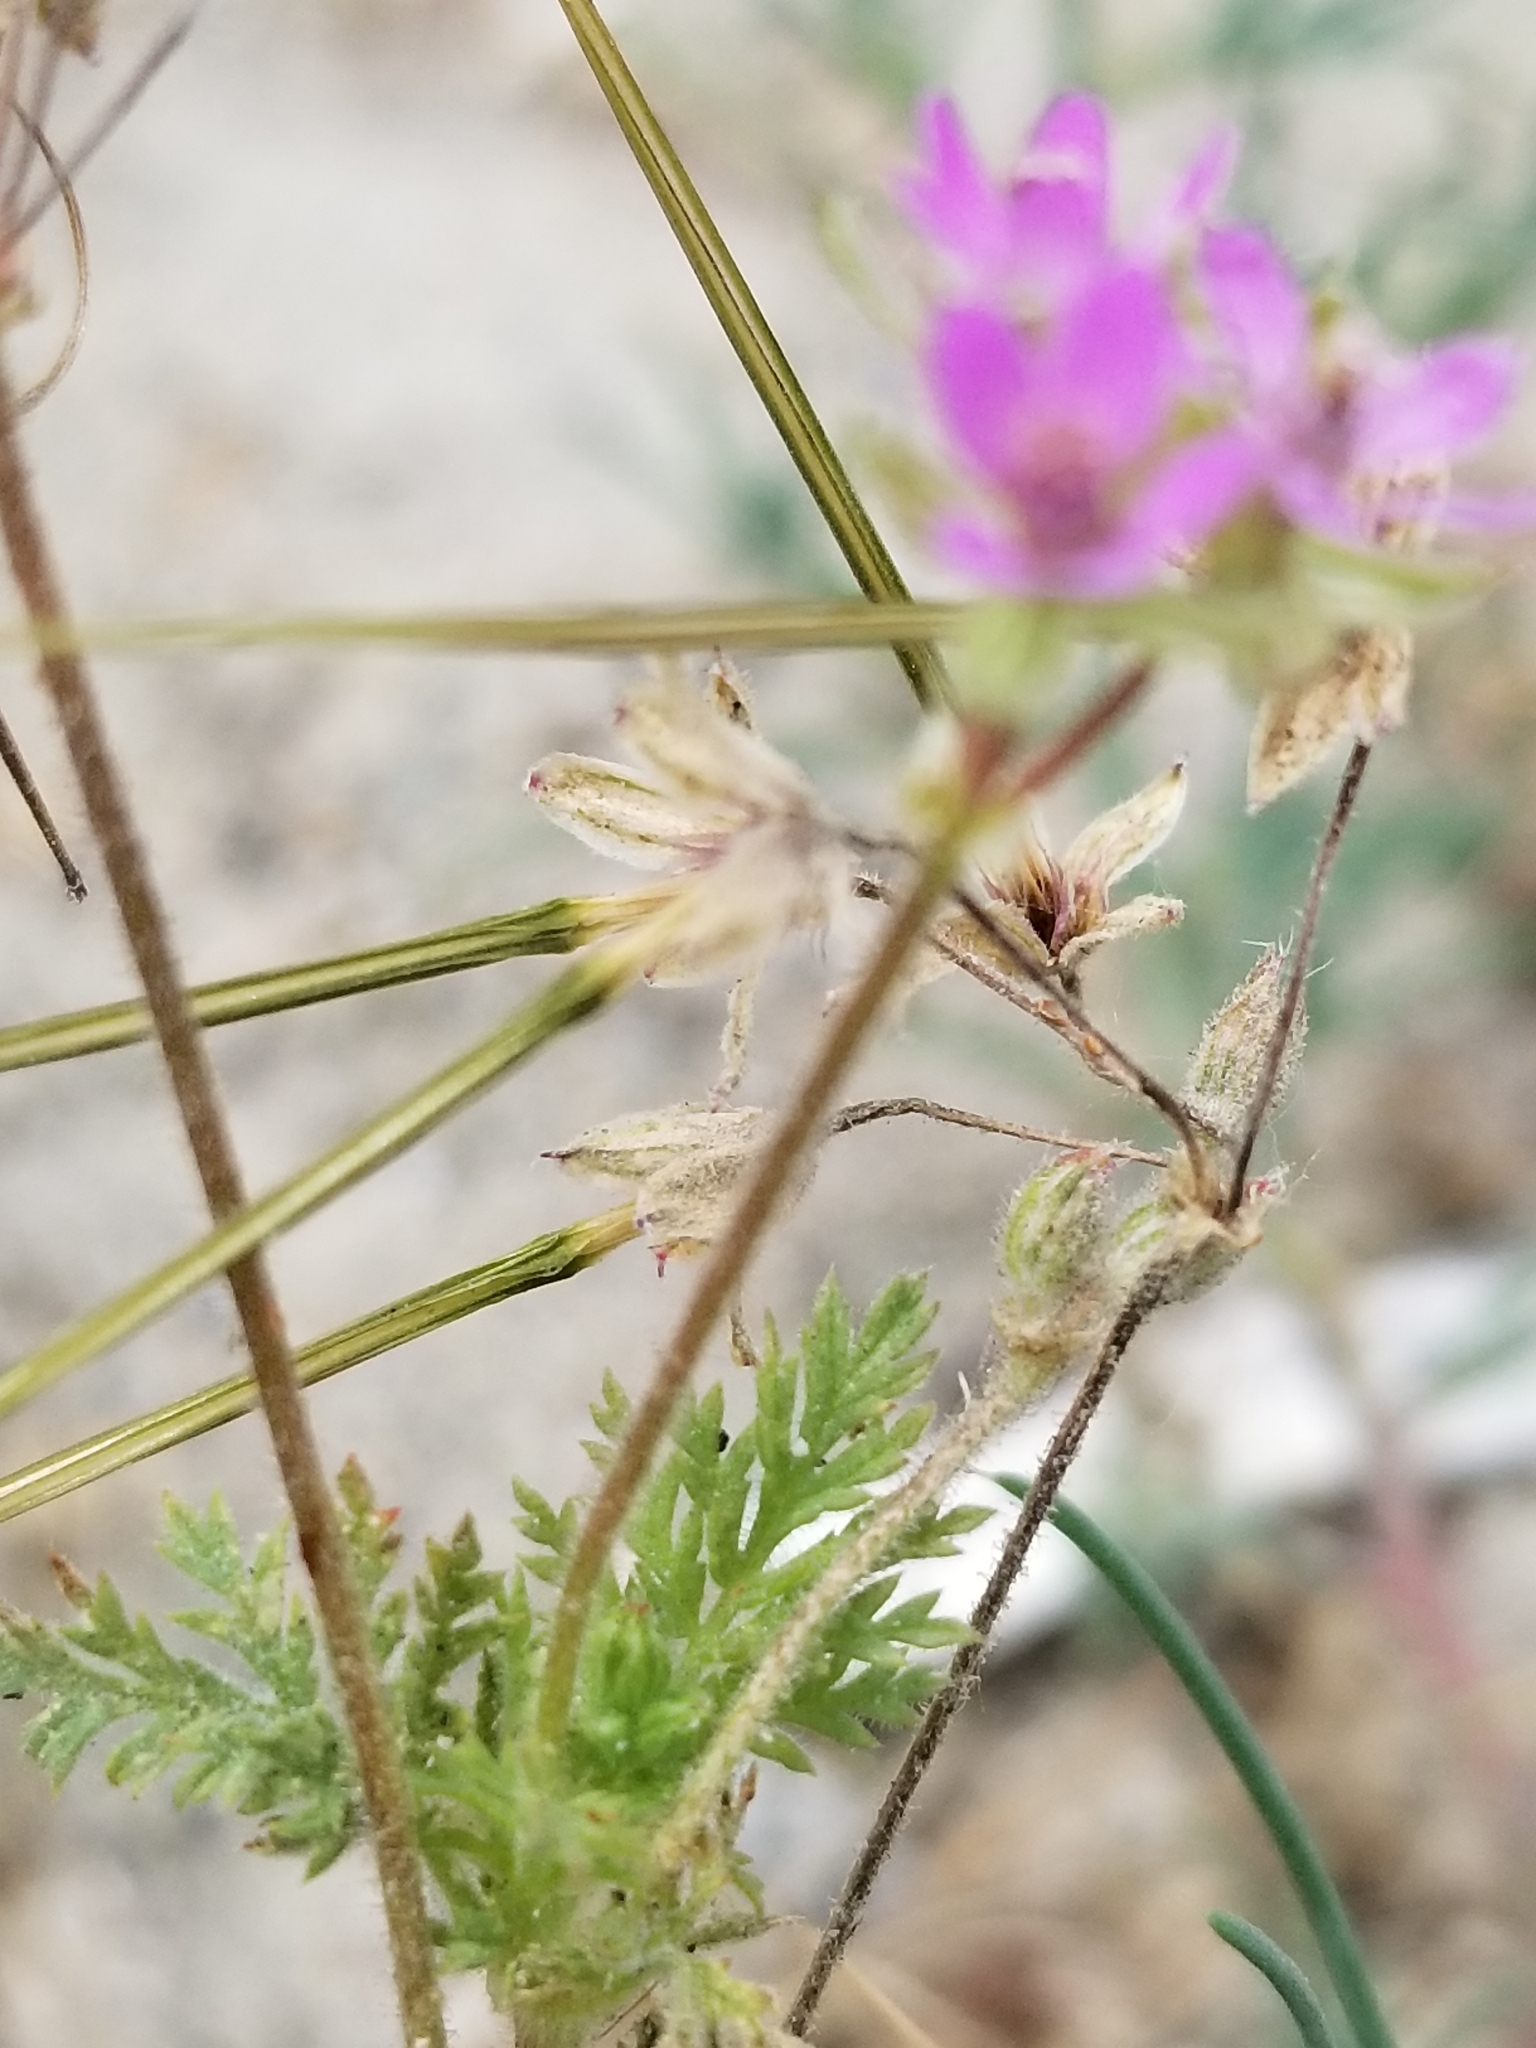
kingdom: Plantae
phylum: Tracheophyta
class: Magnoliopsida
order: Geraniales
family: Geraniaceae
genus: Erodium
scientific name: Erodium cicutarium
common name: Common stork's-bill
